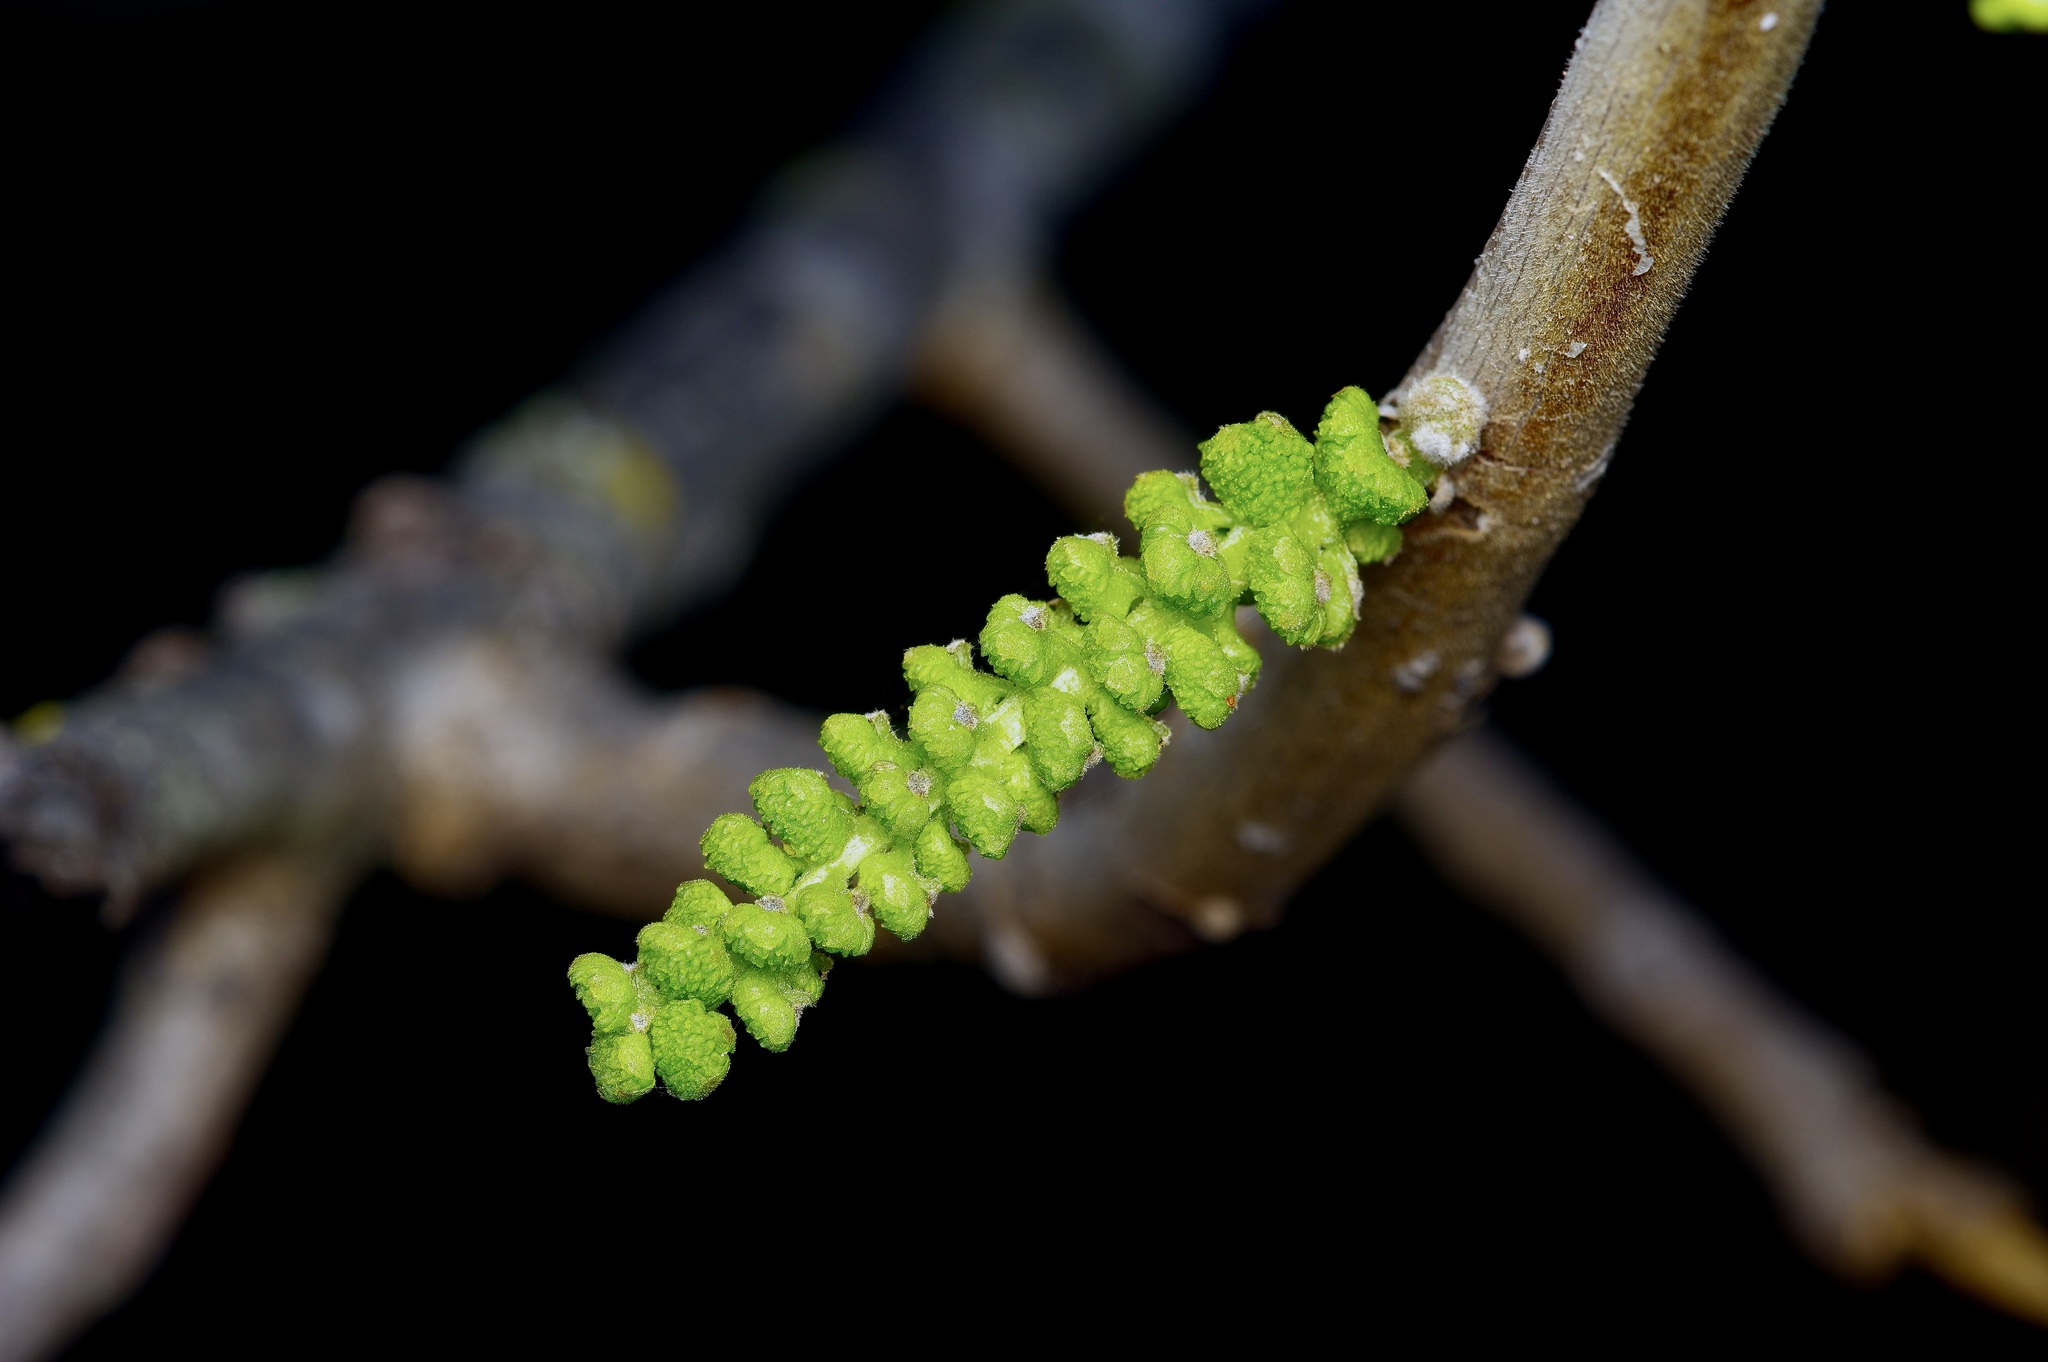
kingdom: Plantae
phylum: Tracheophyta
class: Magnoliopsida
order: Fagales
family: Juglandaceae
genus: Juglans
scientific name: Juglans microcarpa
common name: Texas walnut
